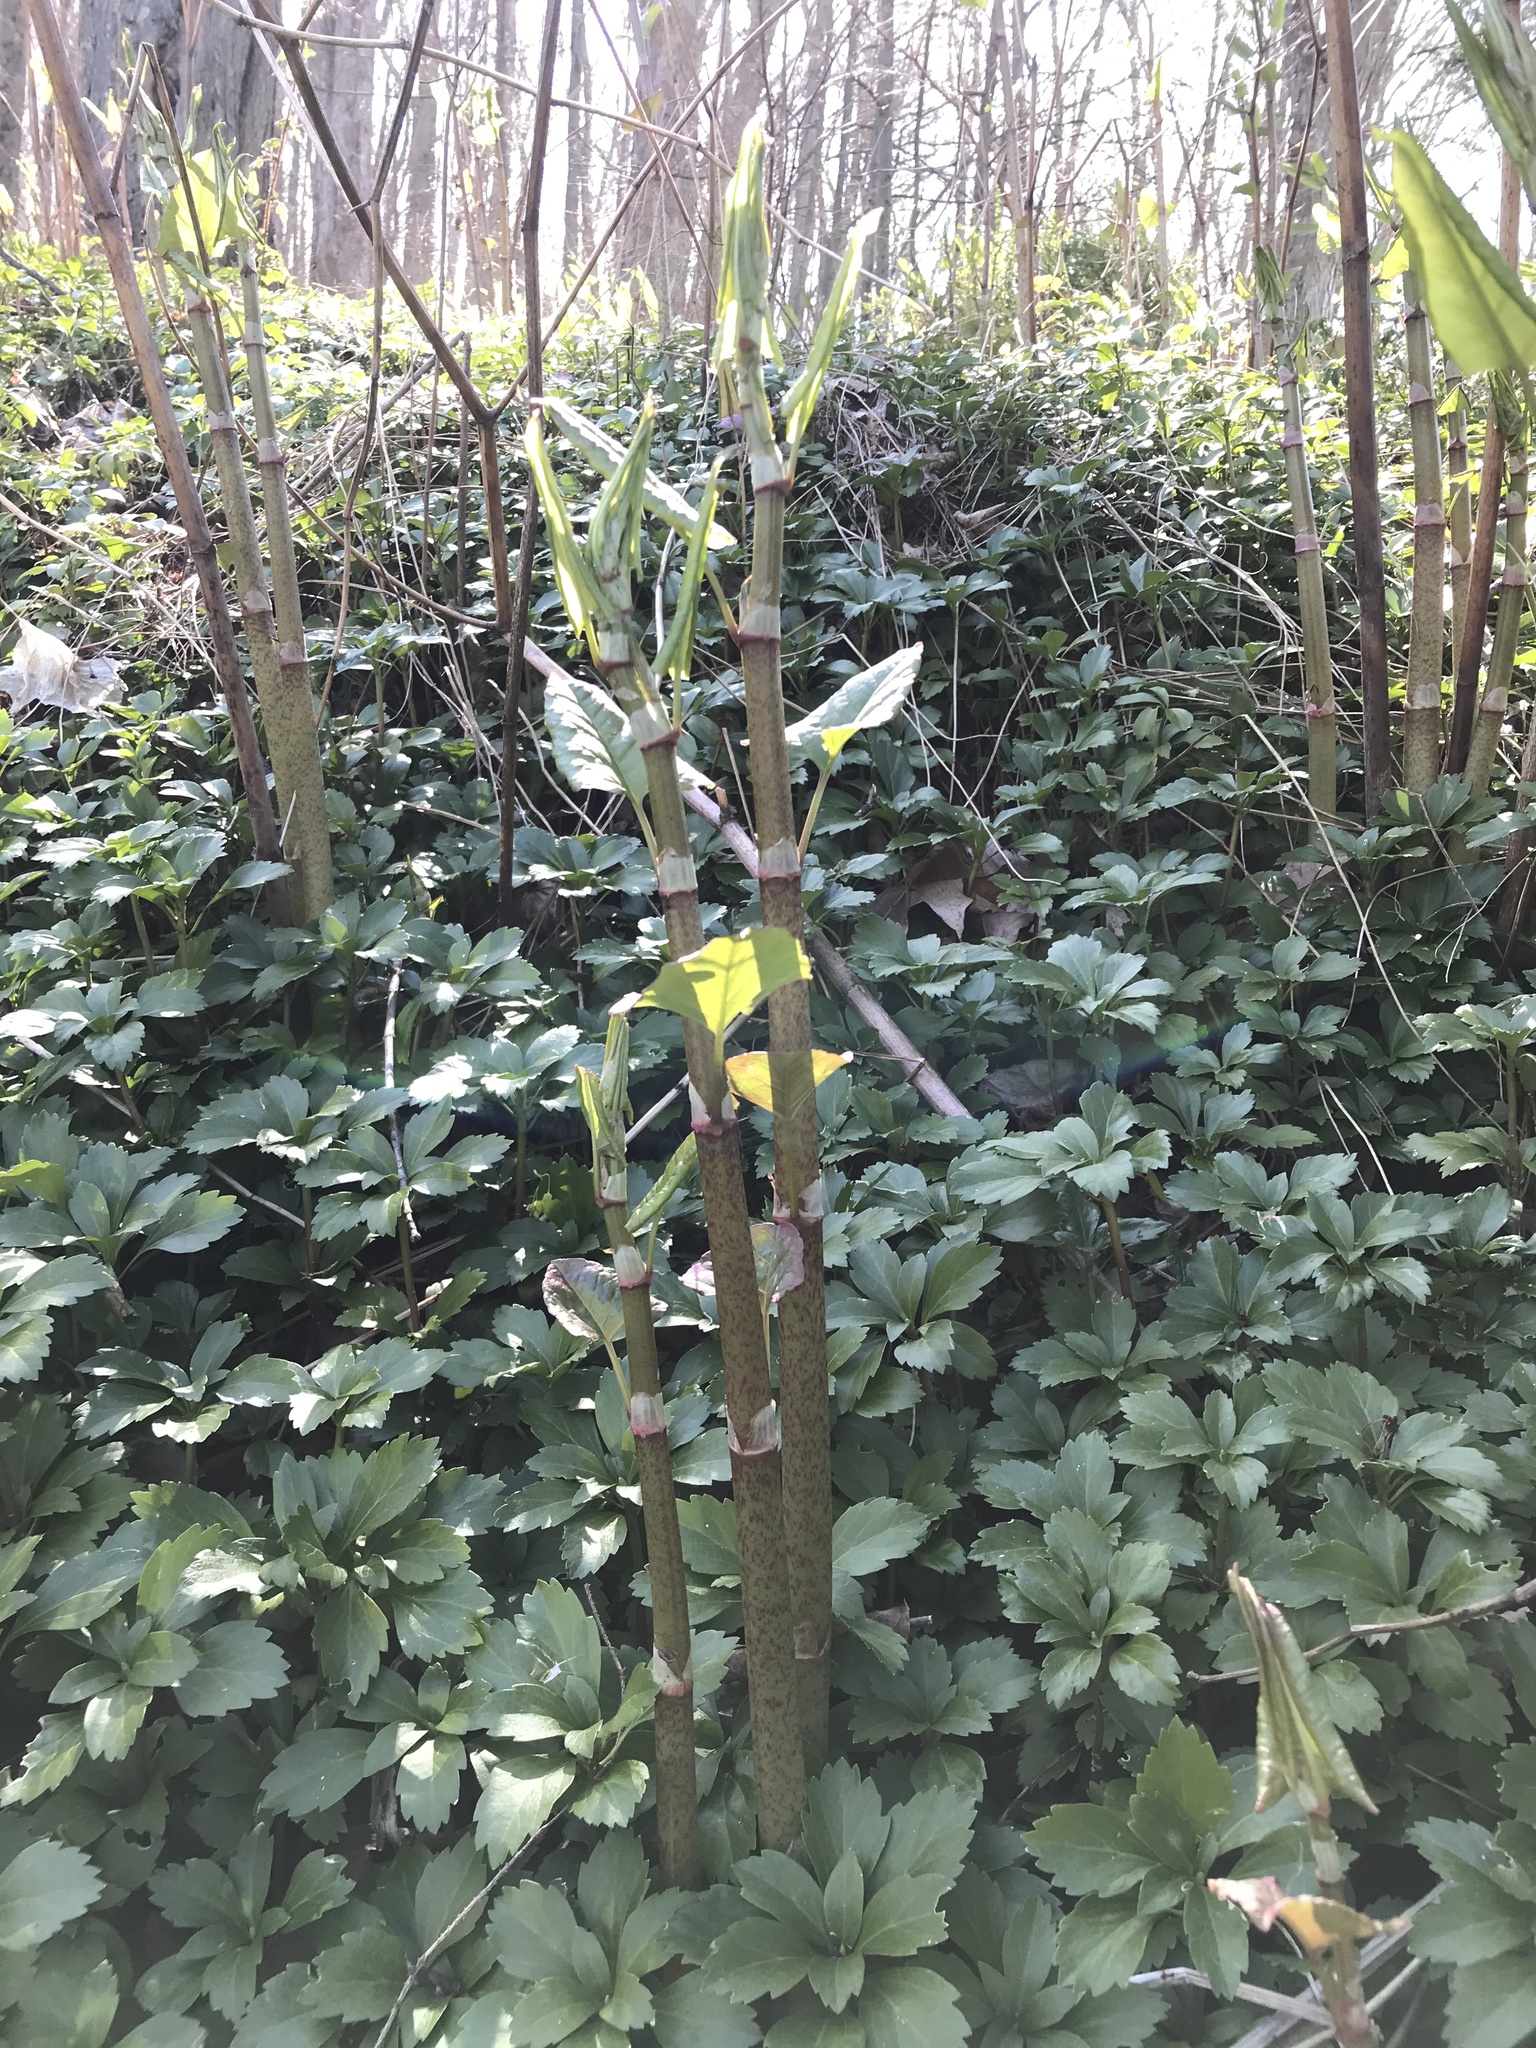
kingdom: Plantae
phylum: Tracheophyta
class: Magnoliopsida
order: Caryophyllales
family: Polygonaceae
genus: Reynoutria
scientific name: Reynoutria japonica
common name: Japanese knotweed
